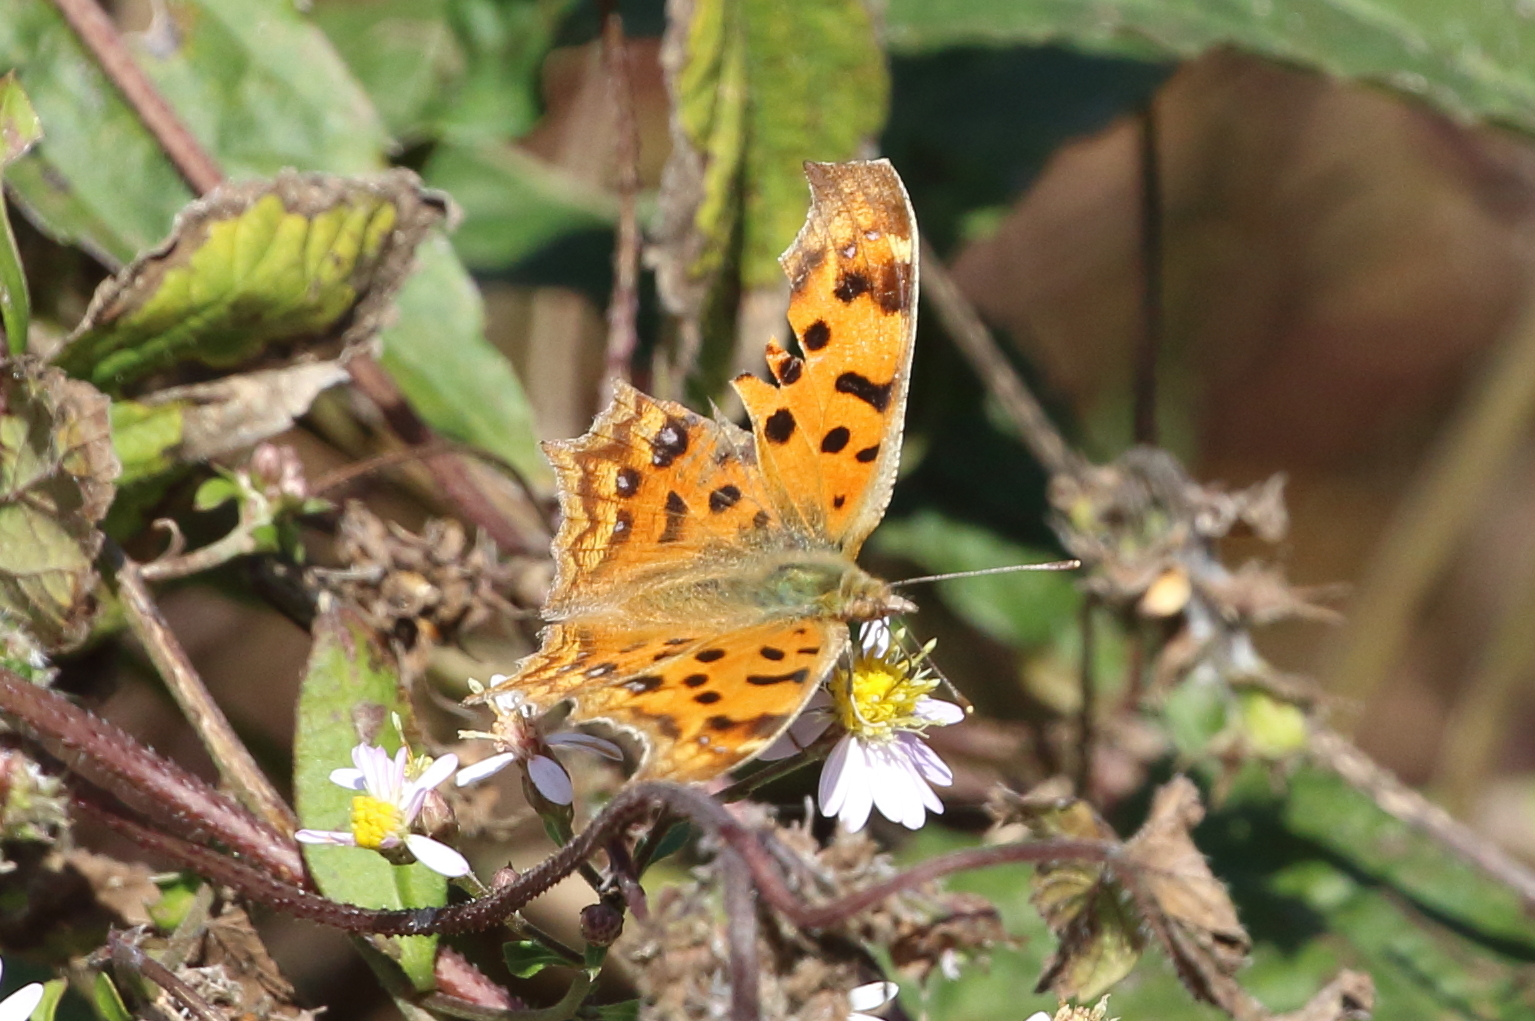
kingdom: Animalia
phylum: Arthropoda
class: Insecta
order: Lepidoptera
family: Nymphalidae
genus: Polygonia
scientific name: Polygonia c-aureum
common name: Asian comma
